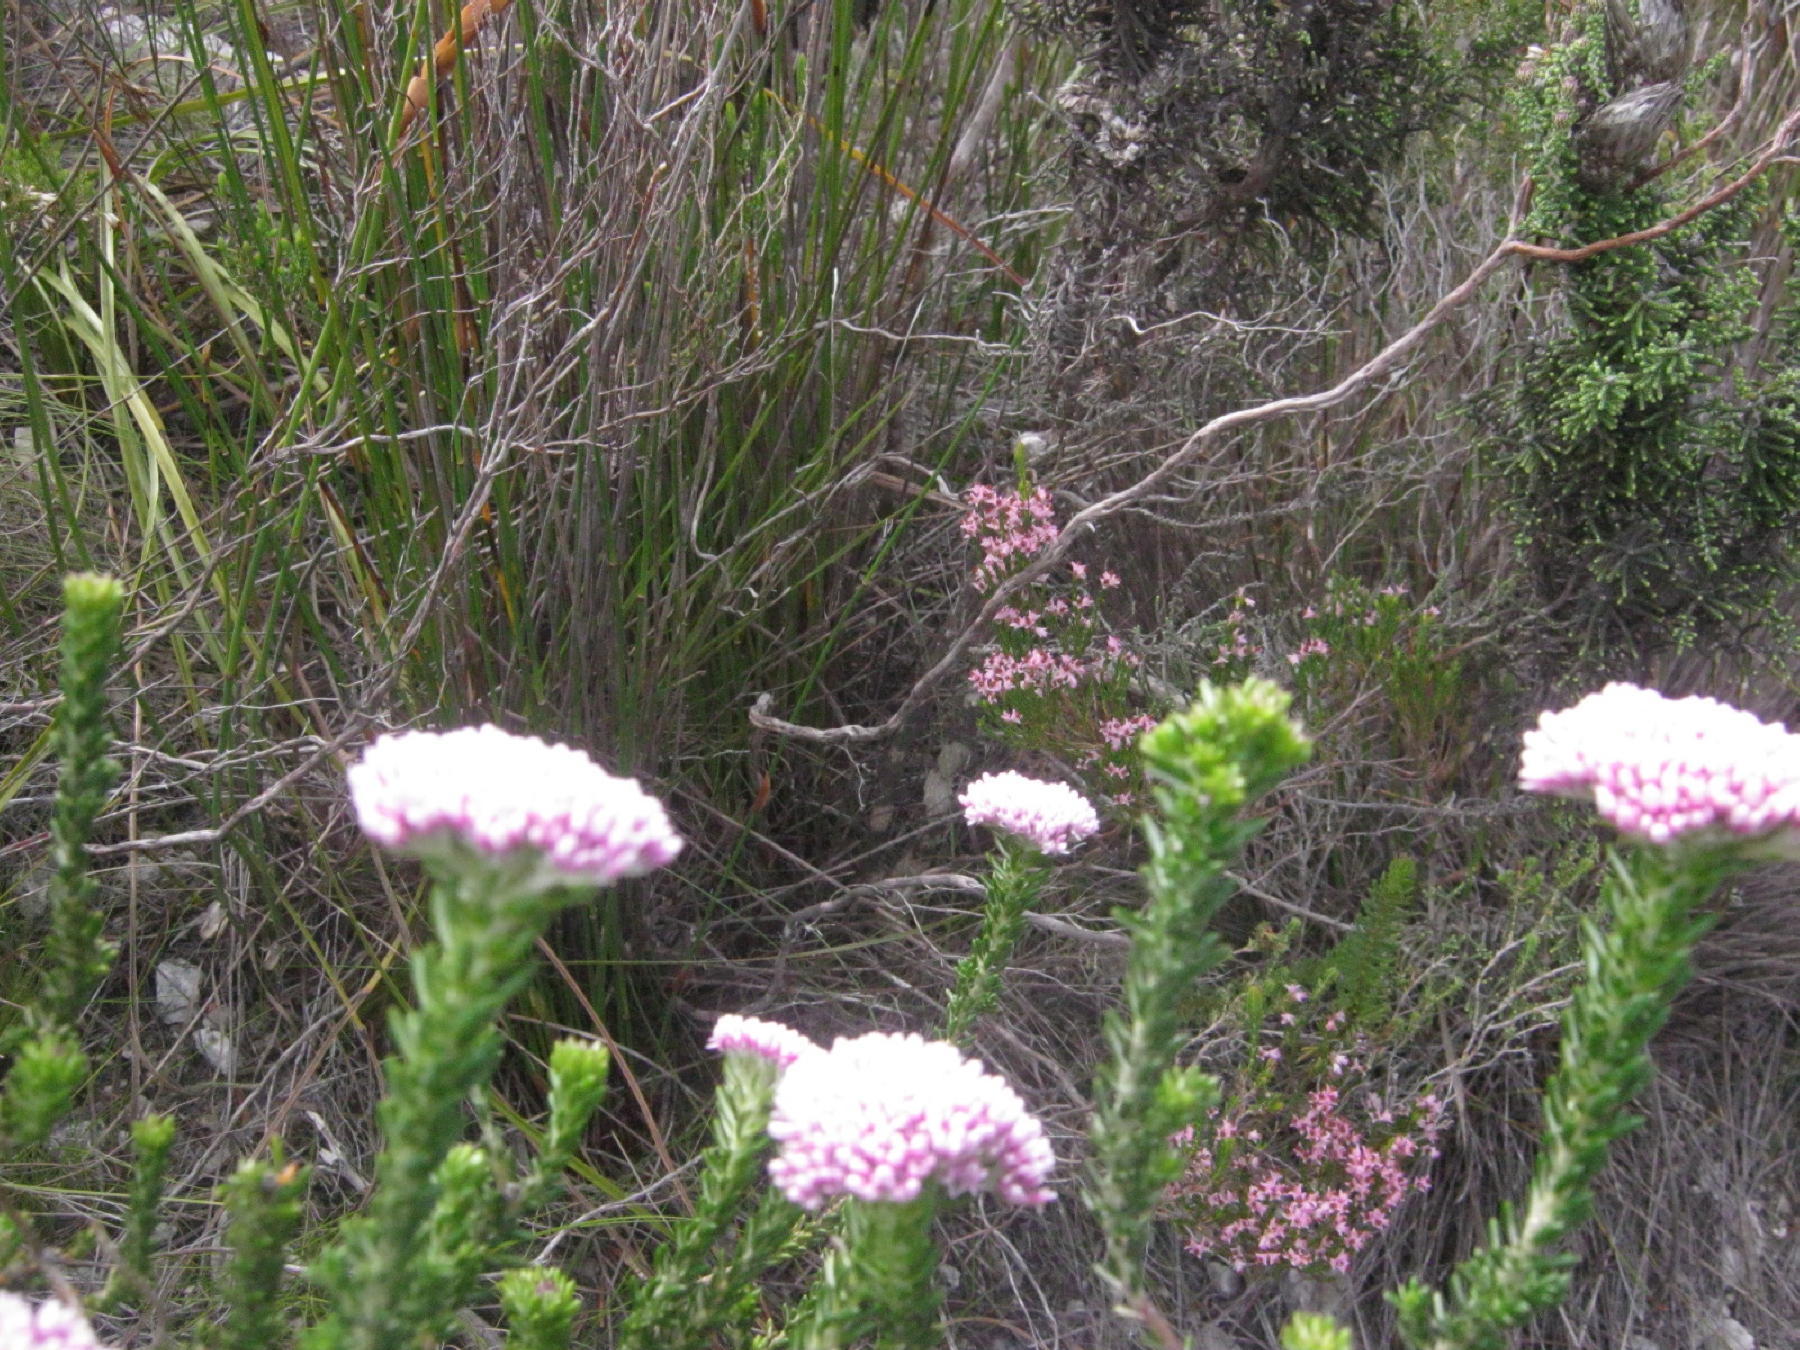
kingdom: Plantae
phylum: Tracheophyta
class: Magnoliopsida
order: Asterales
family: Asteraceae
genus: Metalasia
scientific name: Metalasia erubescens
